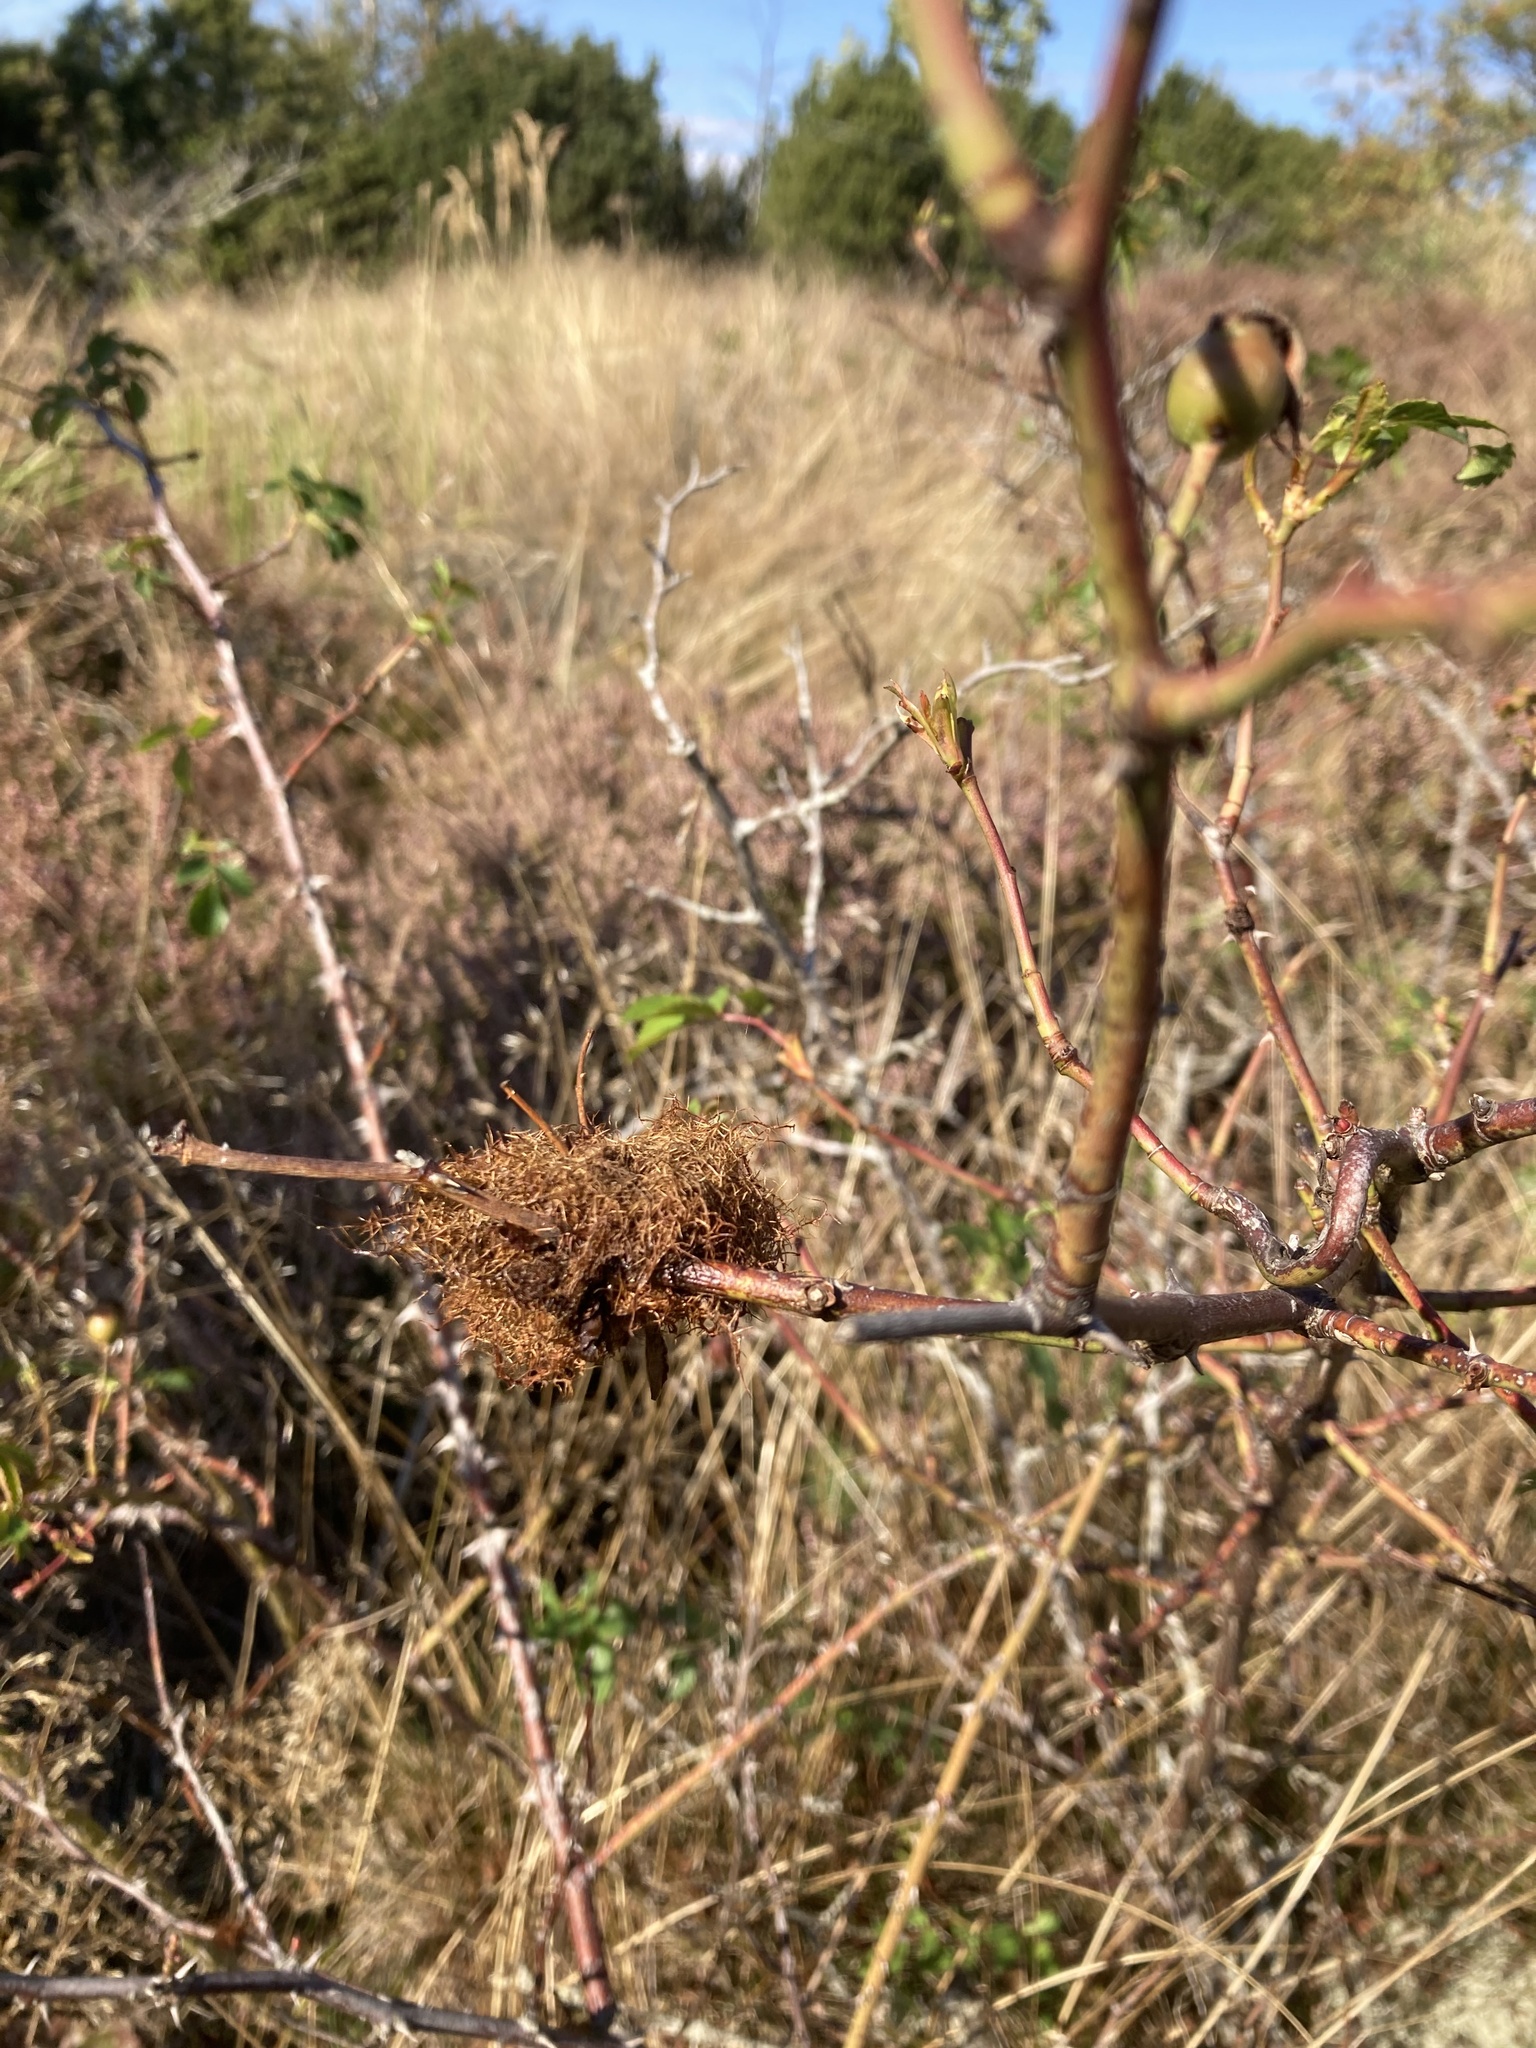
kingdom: Animalia
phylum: Arthropoda
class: Insecta
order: Hymenoptera
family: Cynipidae
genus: Diplolepis
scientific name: Diplolepis rosae
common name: Bedeguar gall
